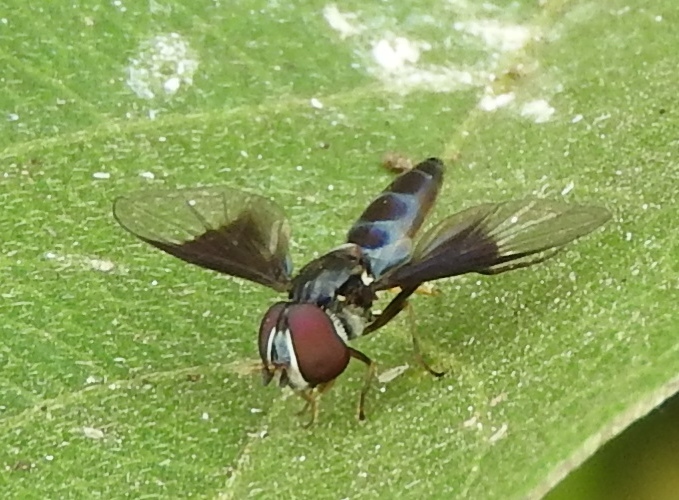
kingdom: Animalia
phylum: Arthropoda
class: Insecta
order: Diptera
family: Syrphidae
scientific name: Syrphidae
